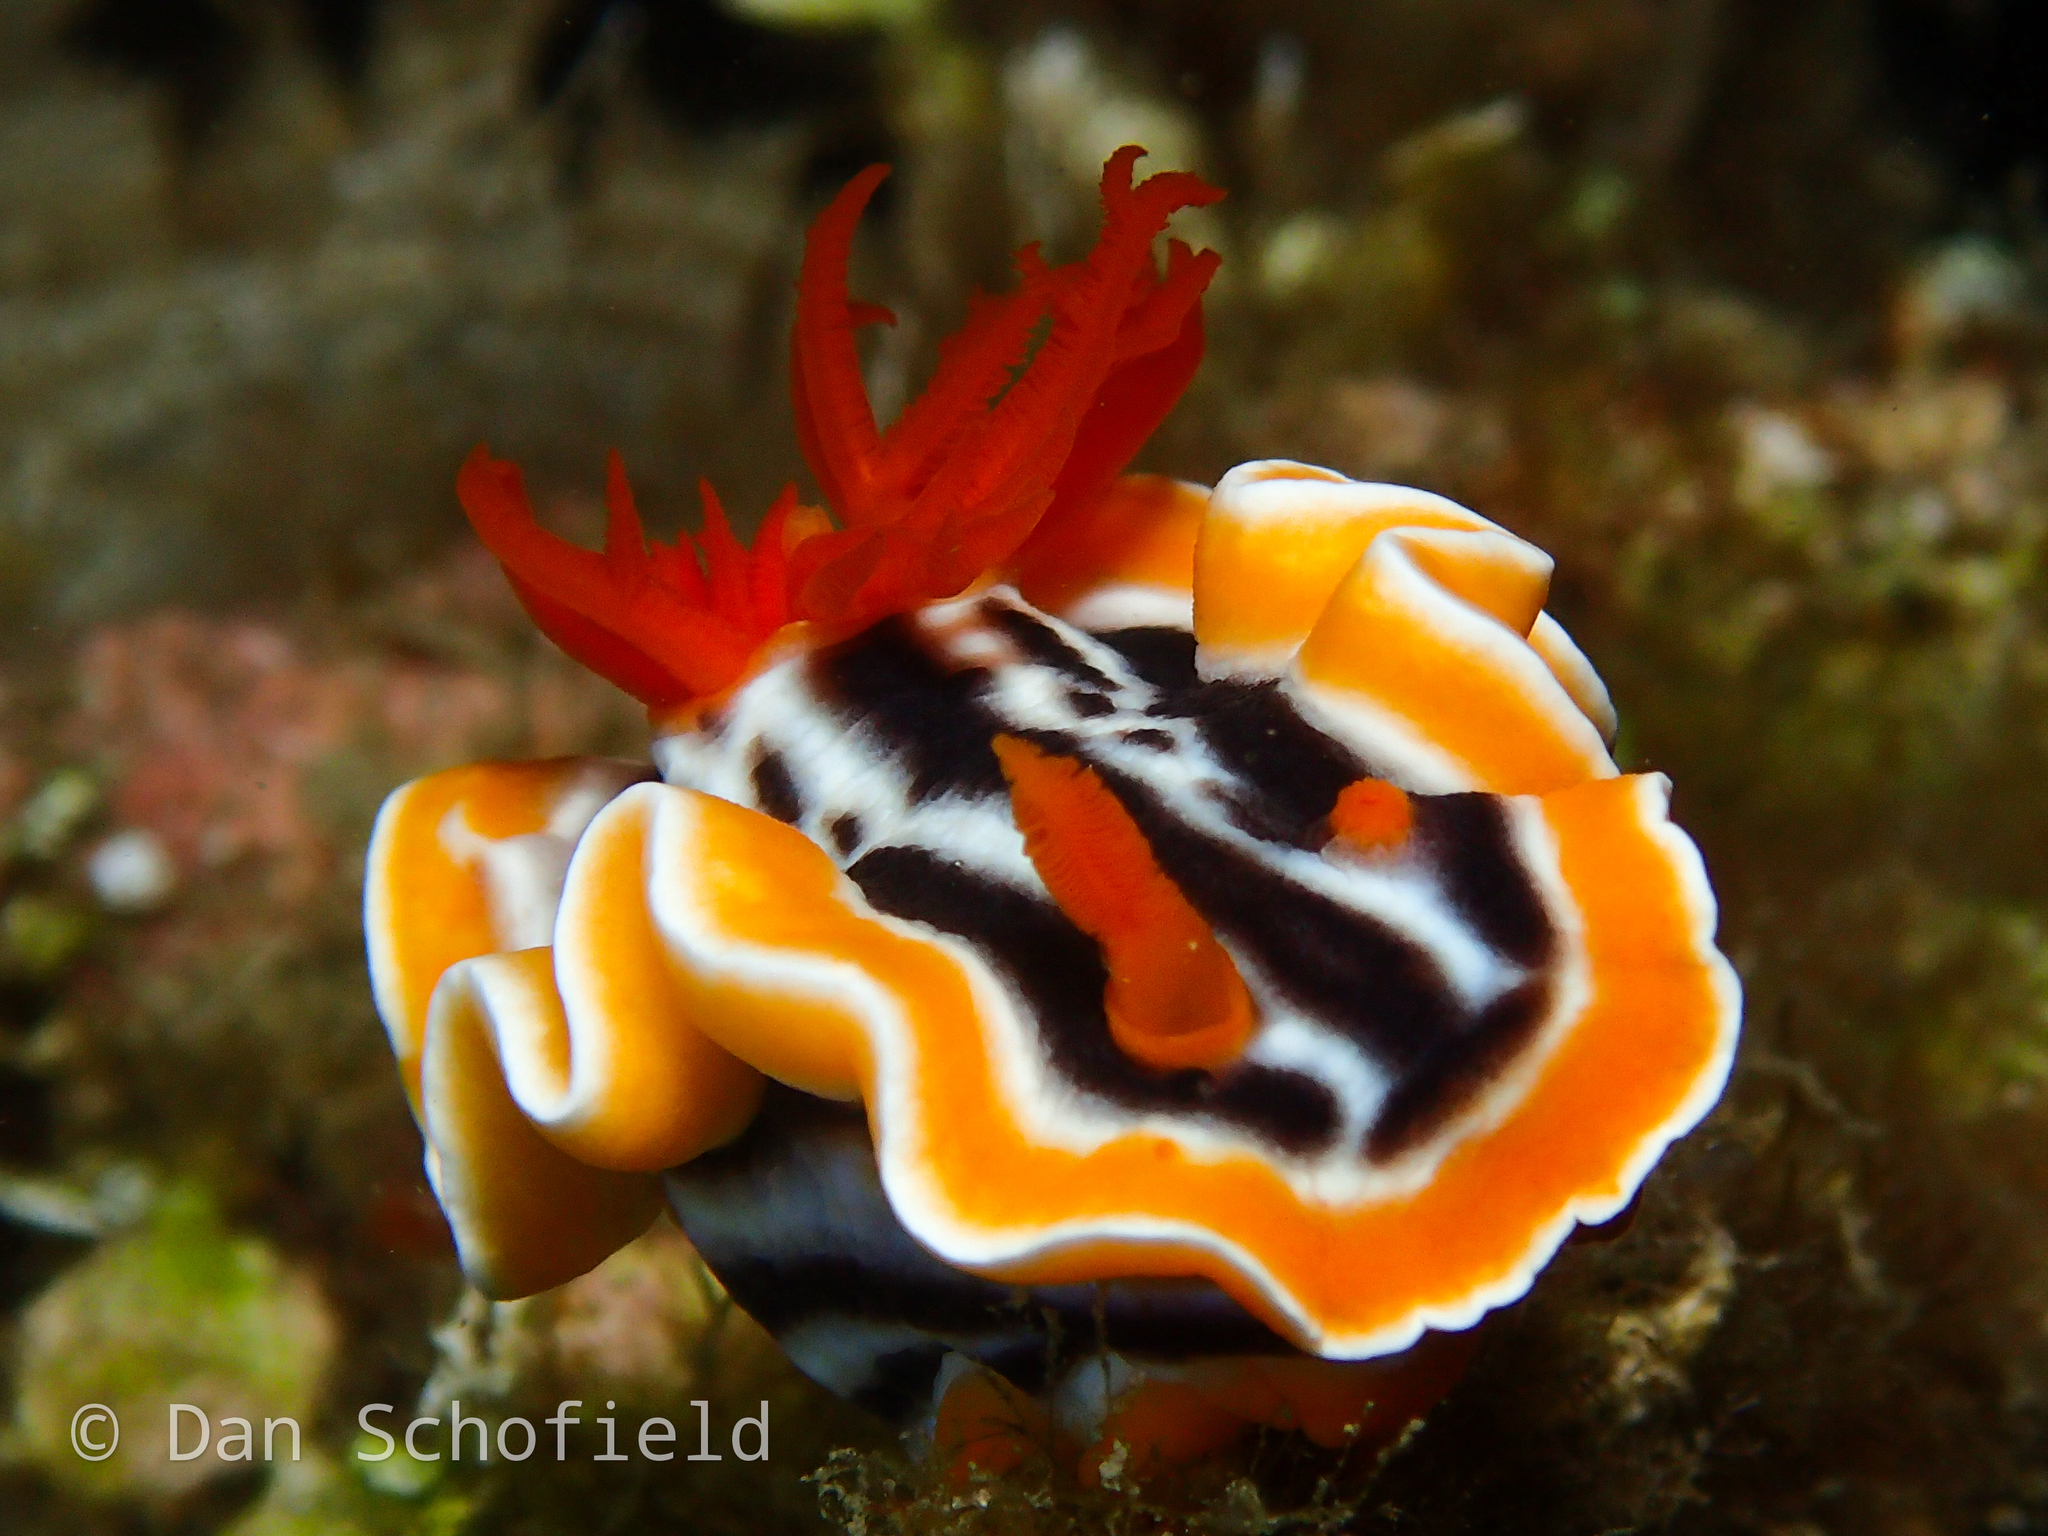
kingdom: Animalia
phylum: Mollusca
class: Gastropoda
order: Nudibranchia
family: Chromodorididae
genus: Chromodoris
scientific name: Chromodoris magnifica
